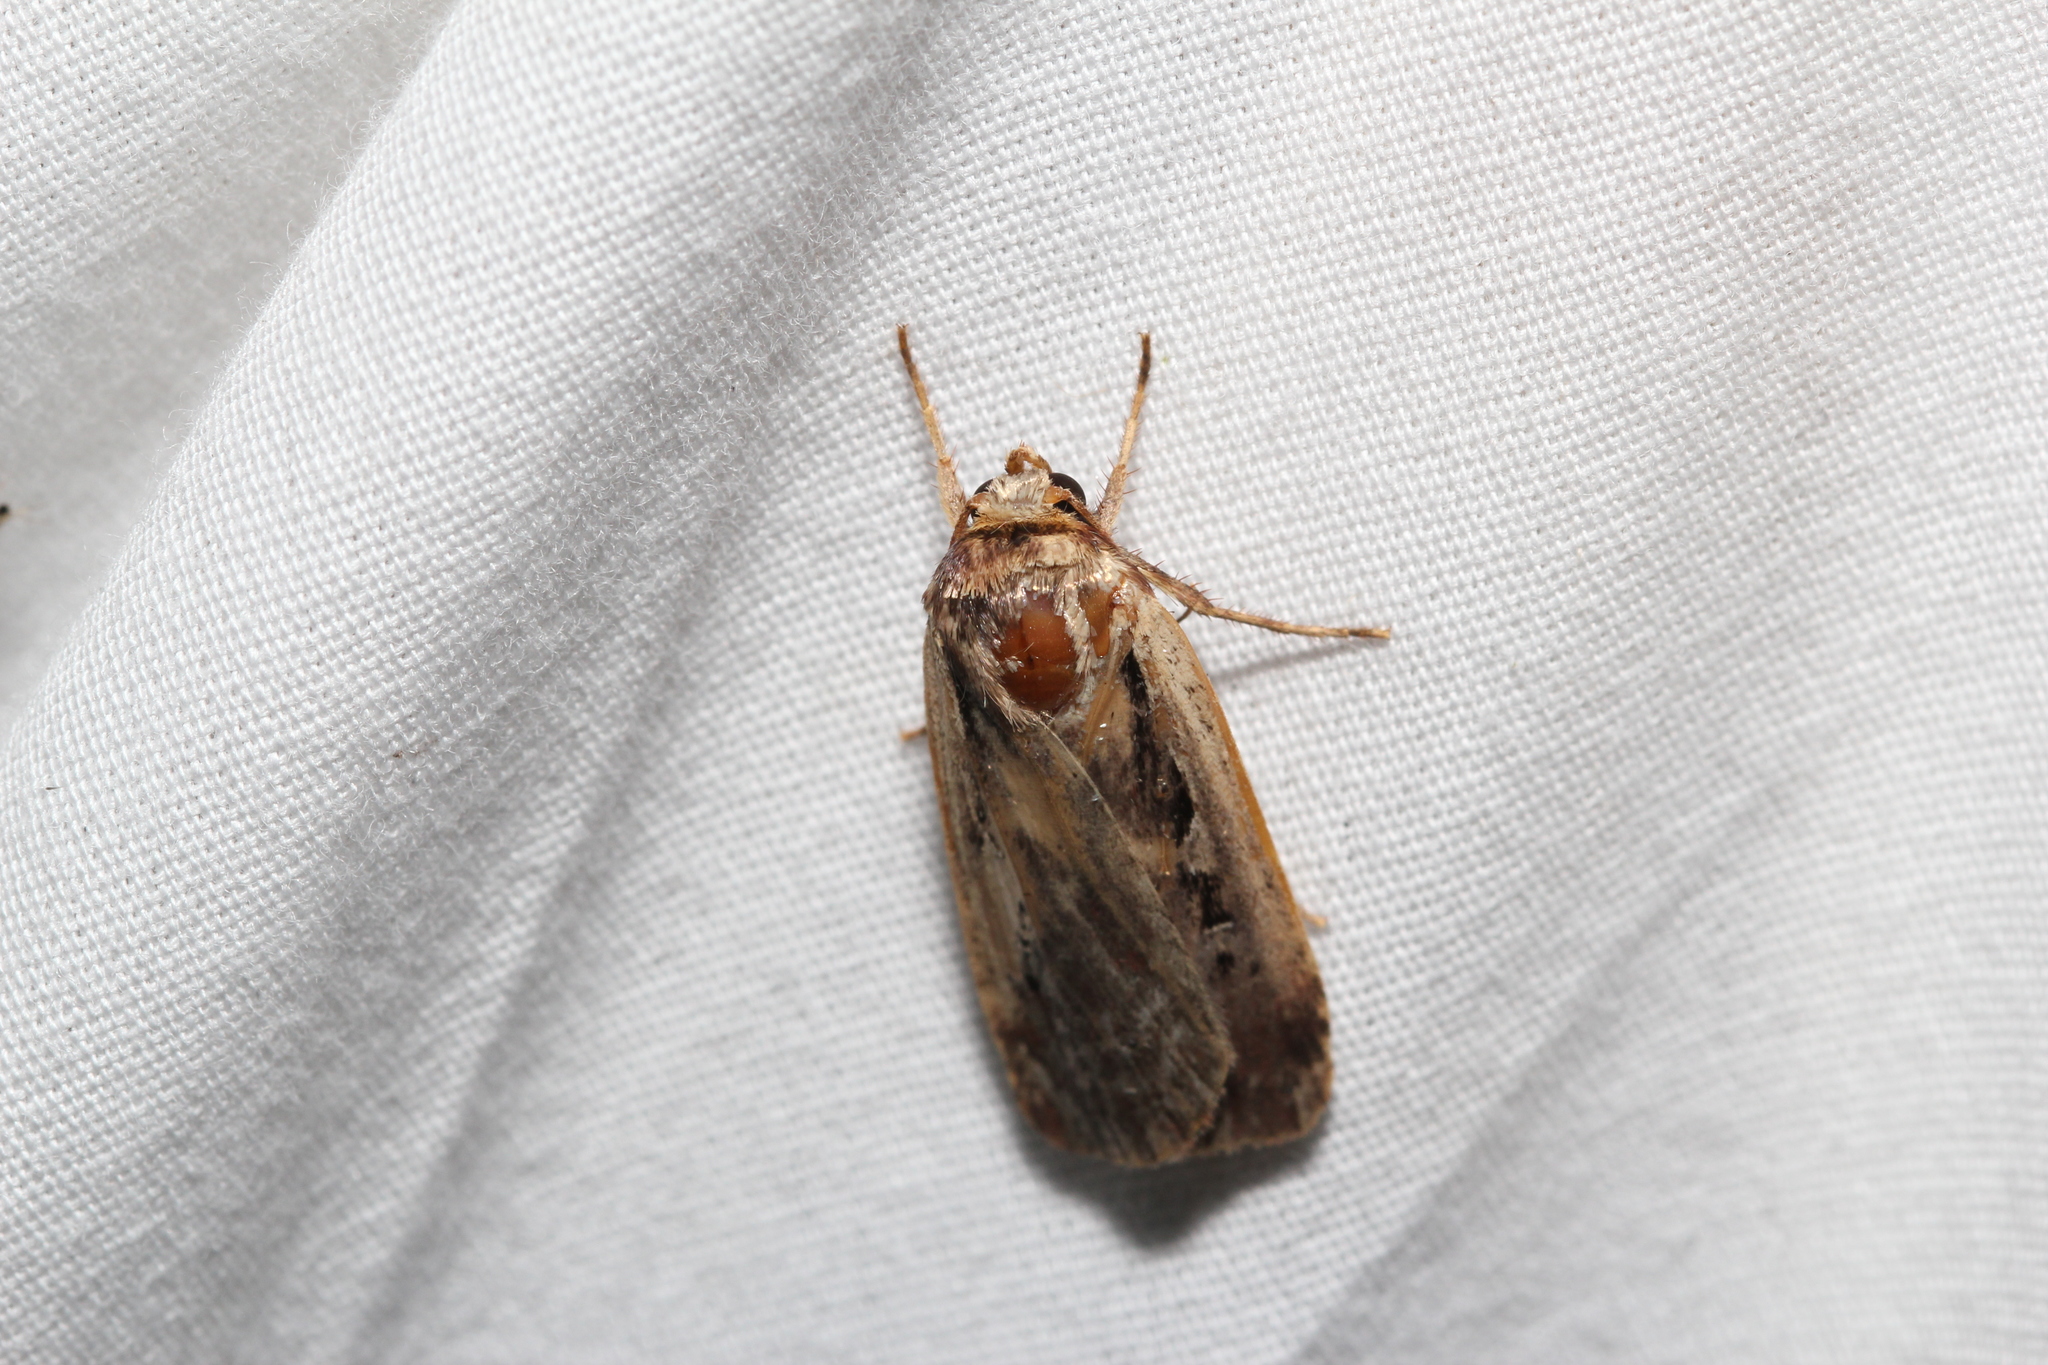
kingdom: Animalia
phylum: Arthropoda
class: Insecta
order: Lepidoptera
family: Noctuidae
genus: Ochropleura
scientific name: Ochropleura implecta
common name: Flame-shouldered dart
